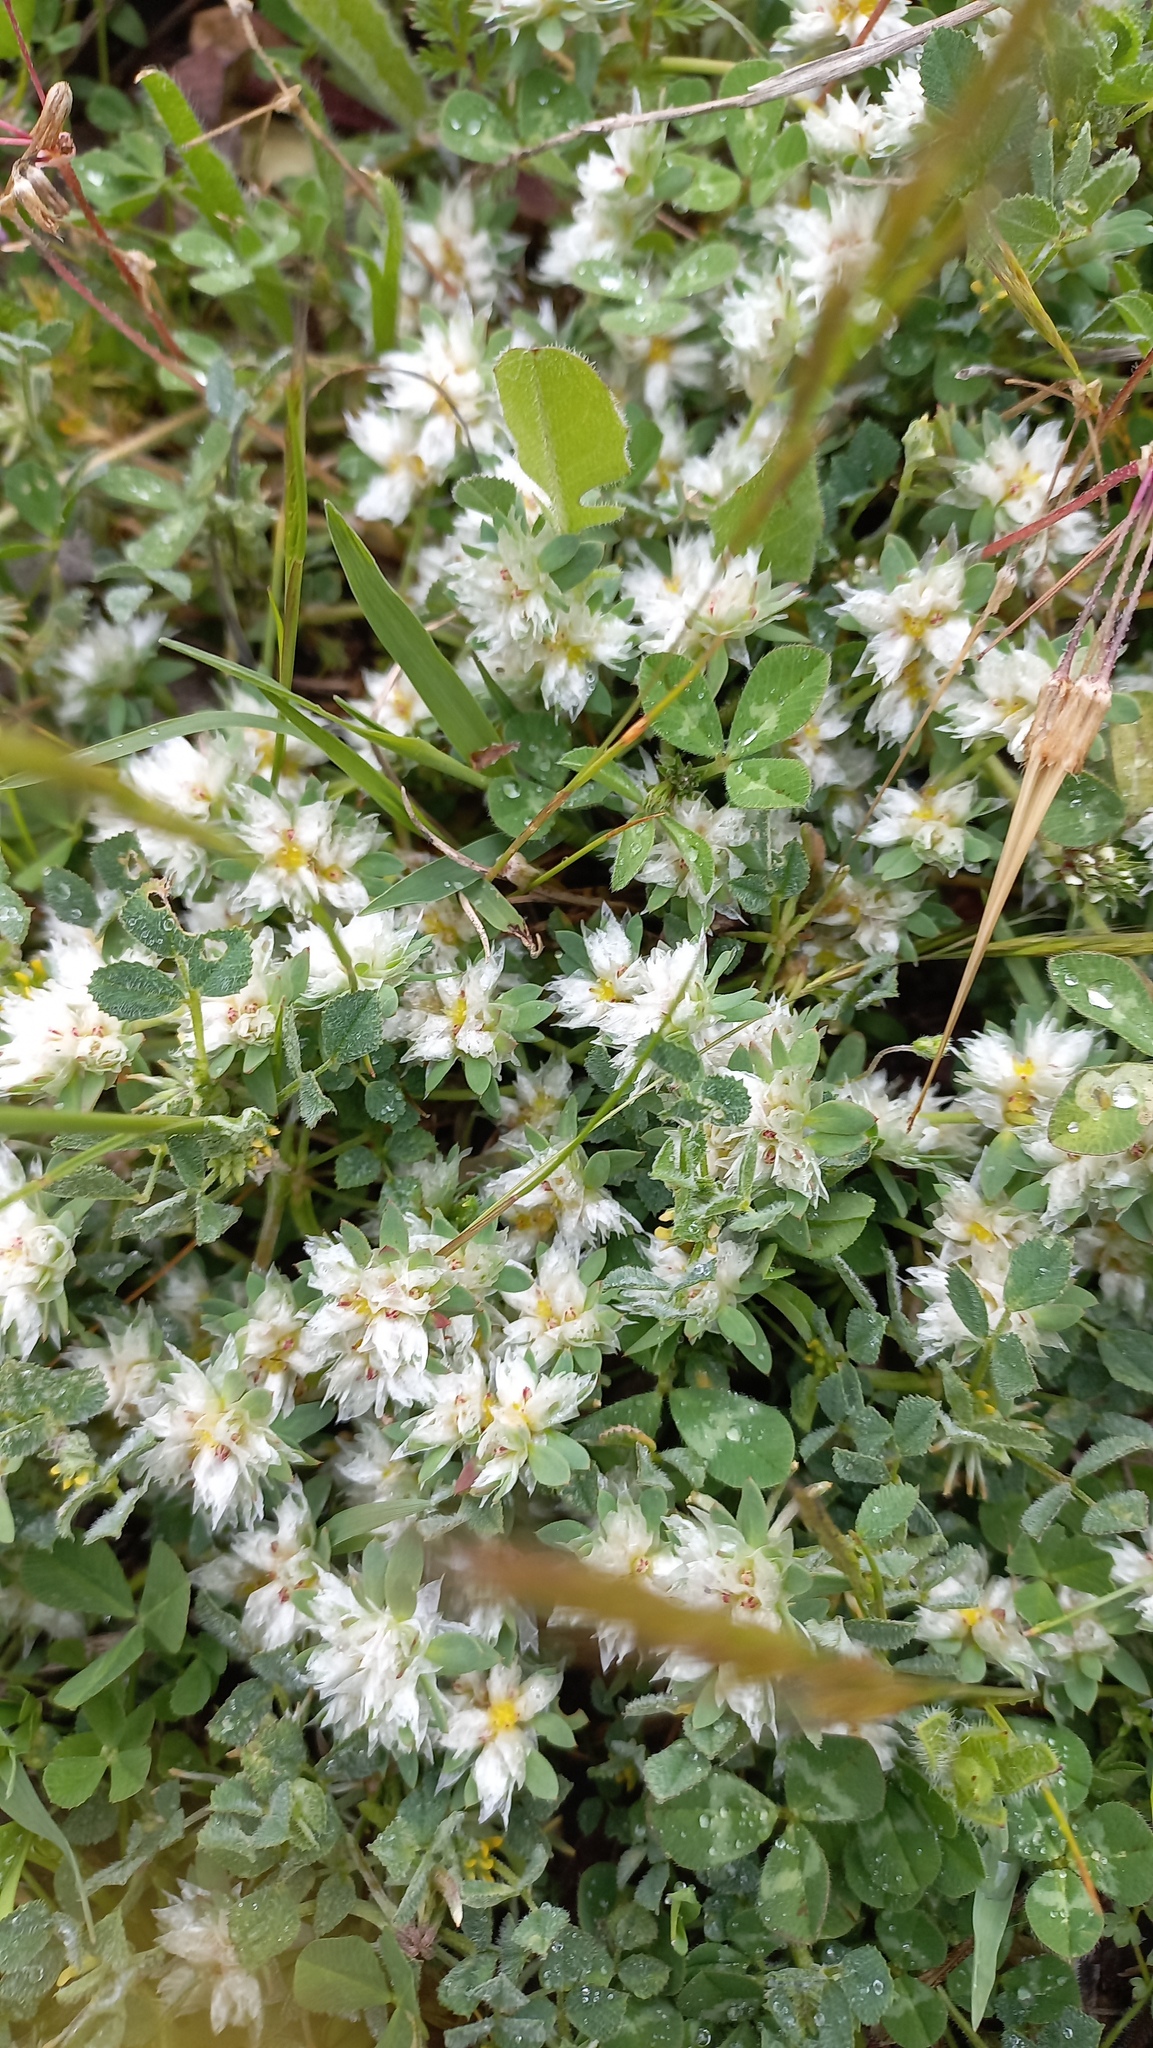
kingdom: Plantae
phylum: Tracheophyta
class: Magnoliopsida
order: Caryophyllales
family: Caryophyllaceae
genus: Paronychia
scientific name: Paronychia argentea
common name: Silver nailroot
